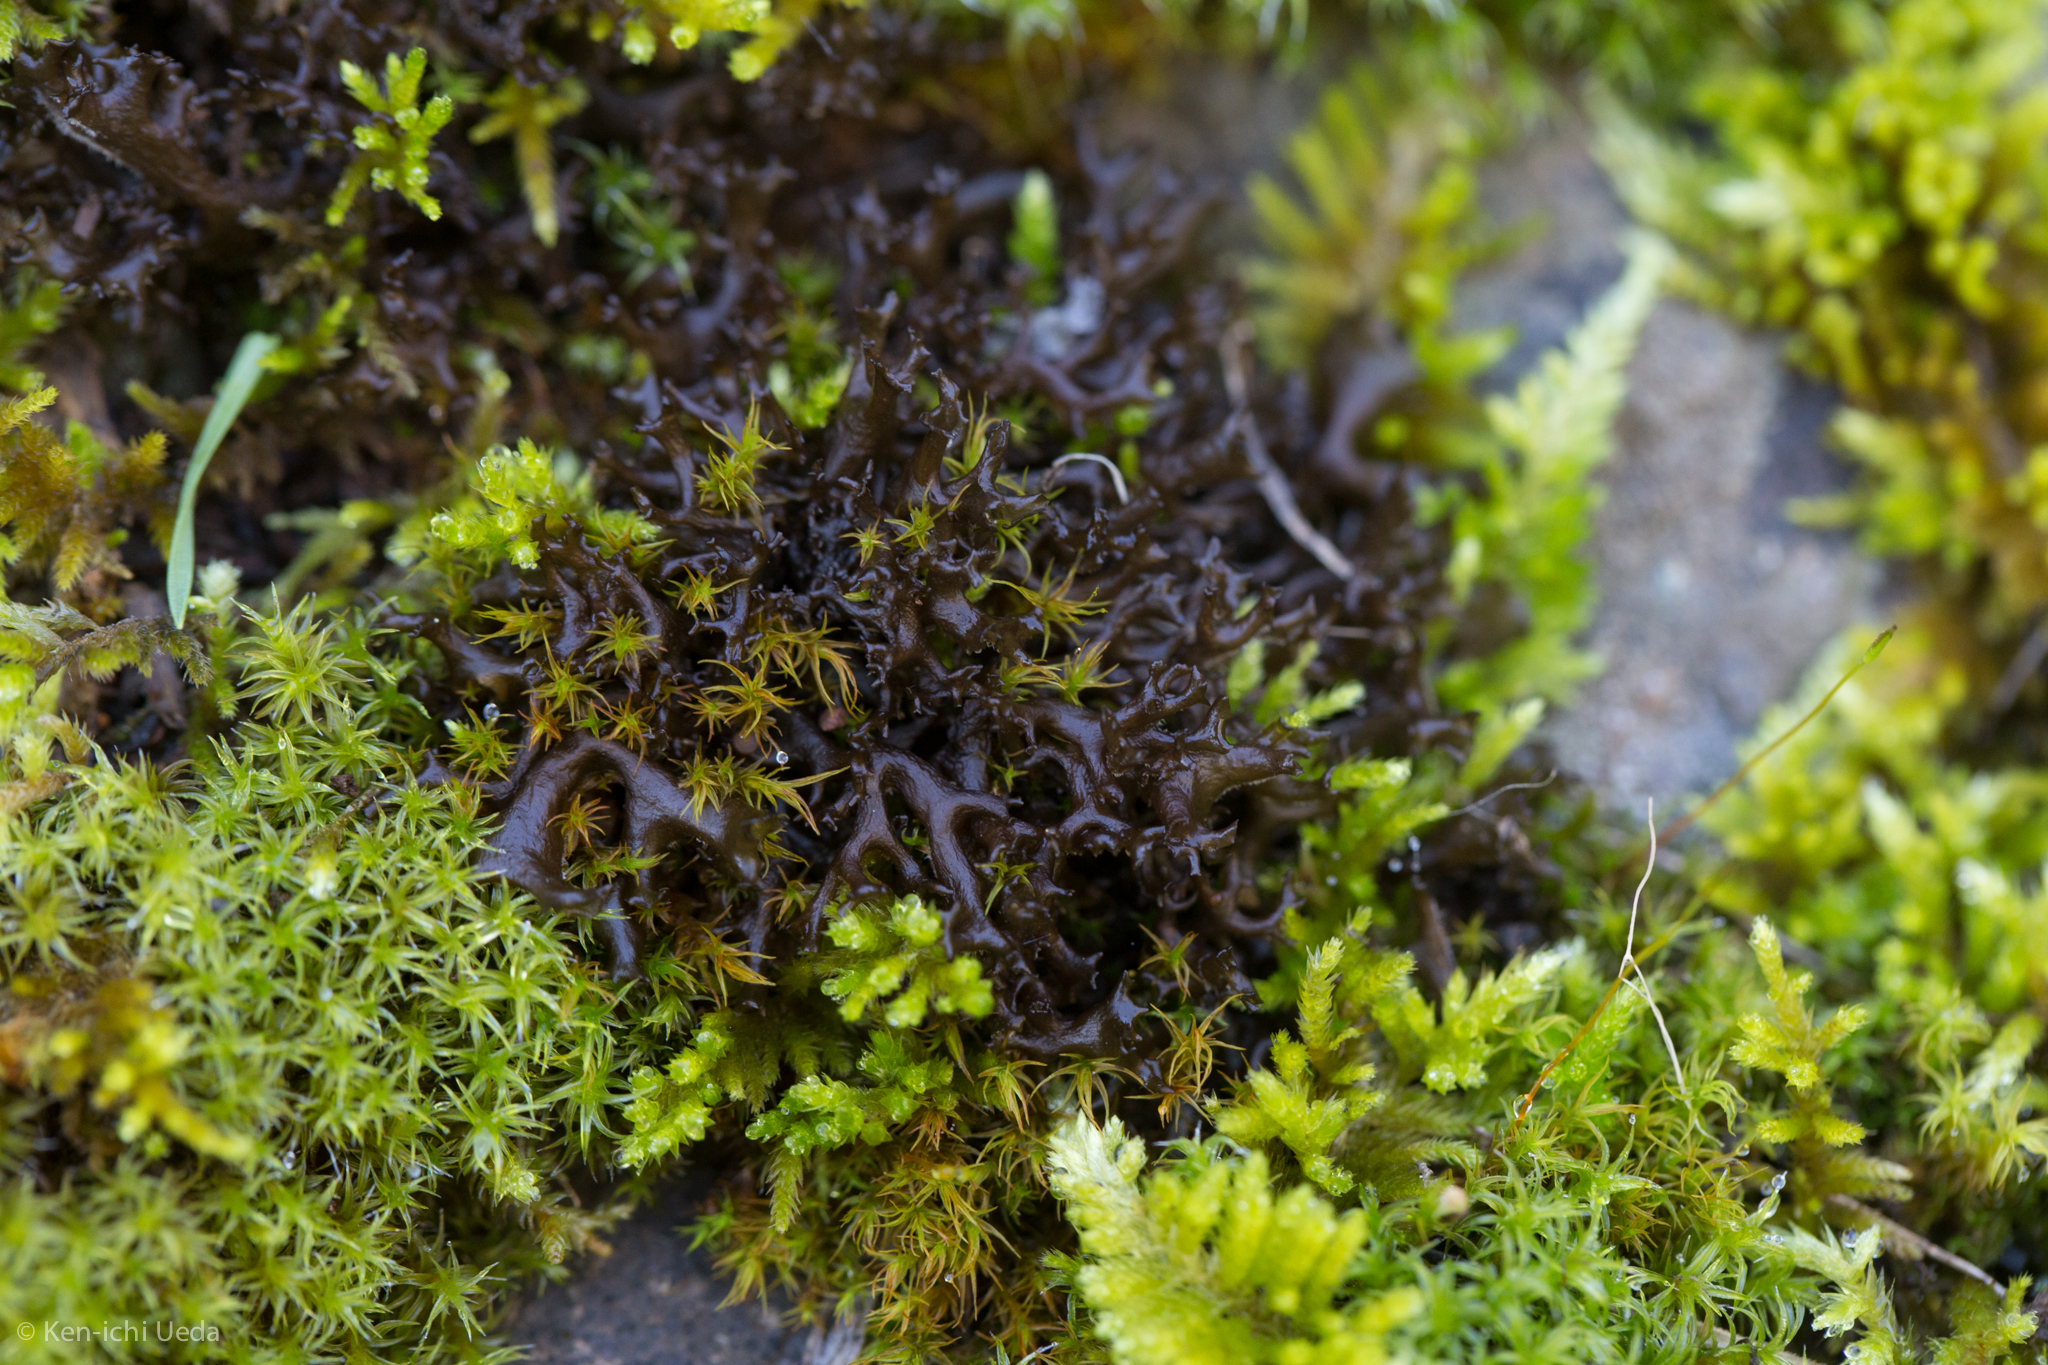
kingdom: Fungi
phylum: Ascomycota
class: Lecanoromycetes
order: Peltigerales
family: Collemataceae
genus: Scytinium
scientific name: Scytinium palmatum
